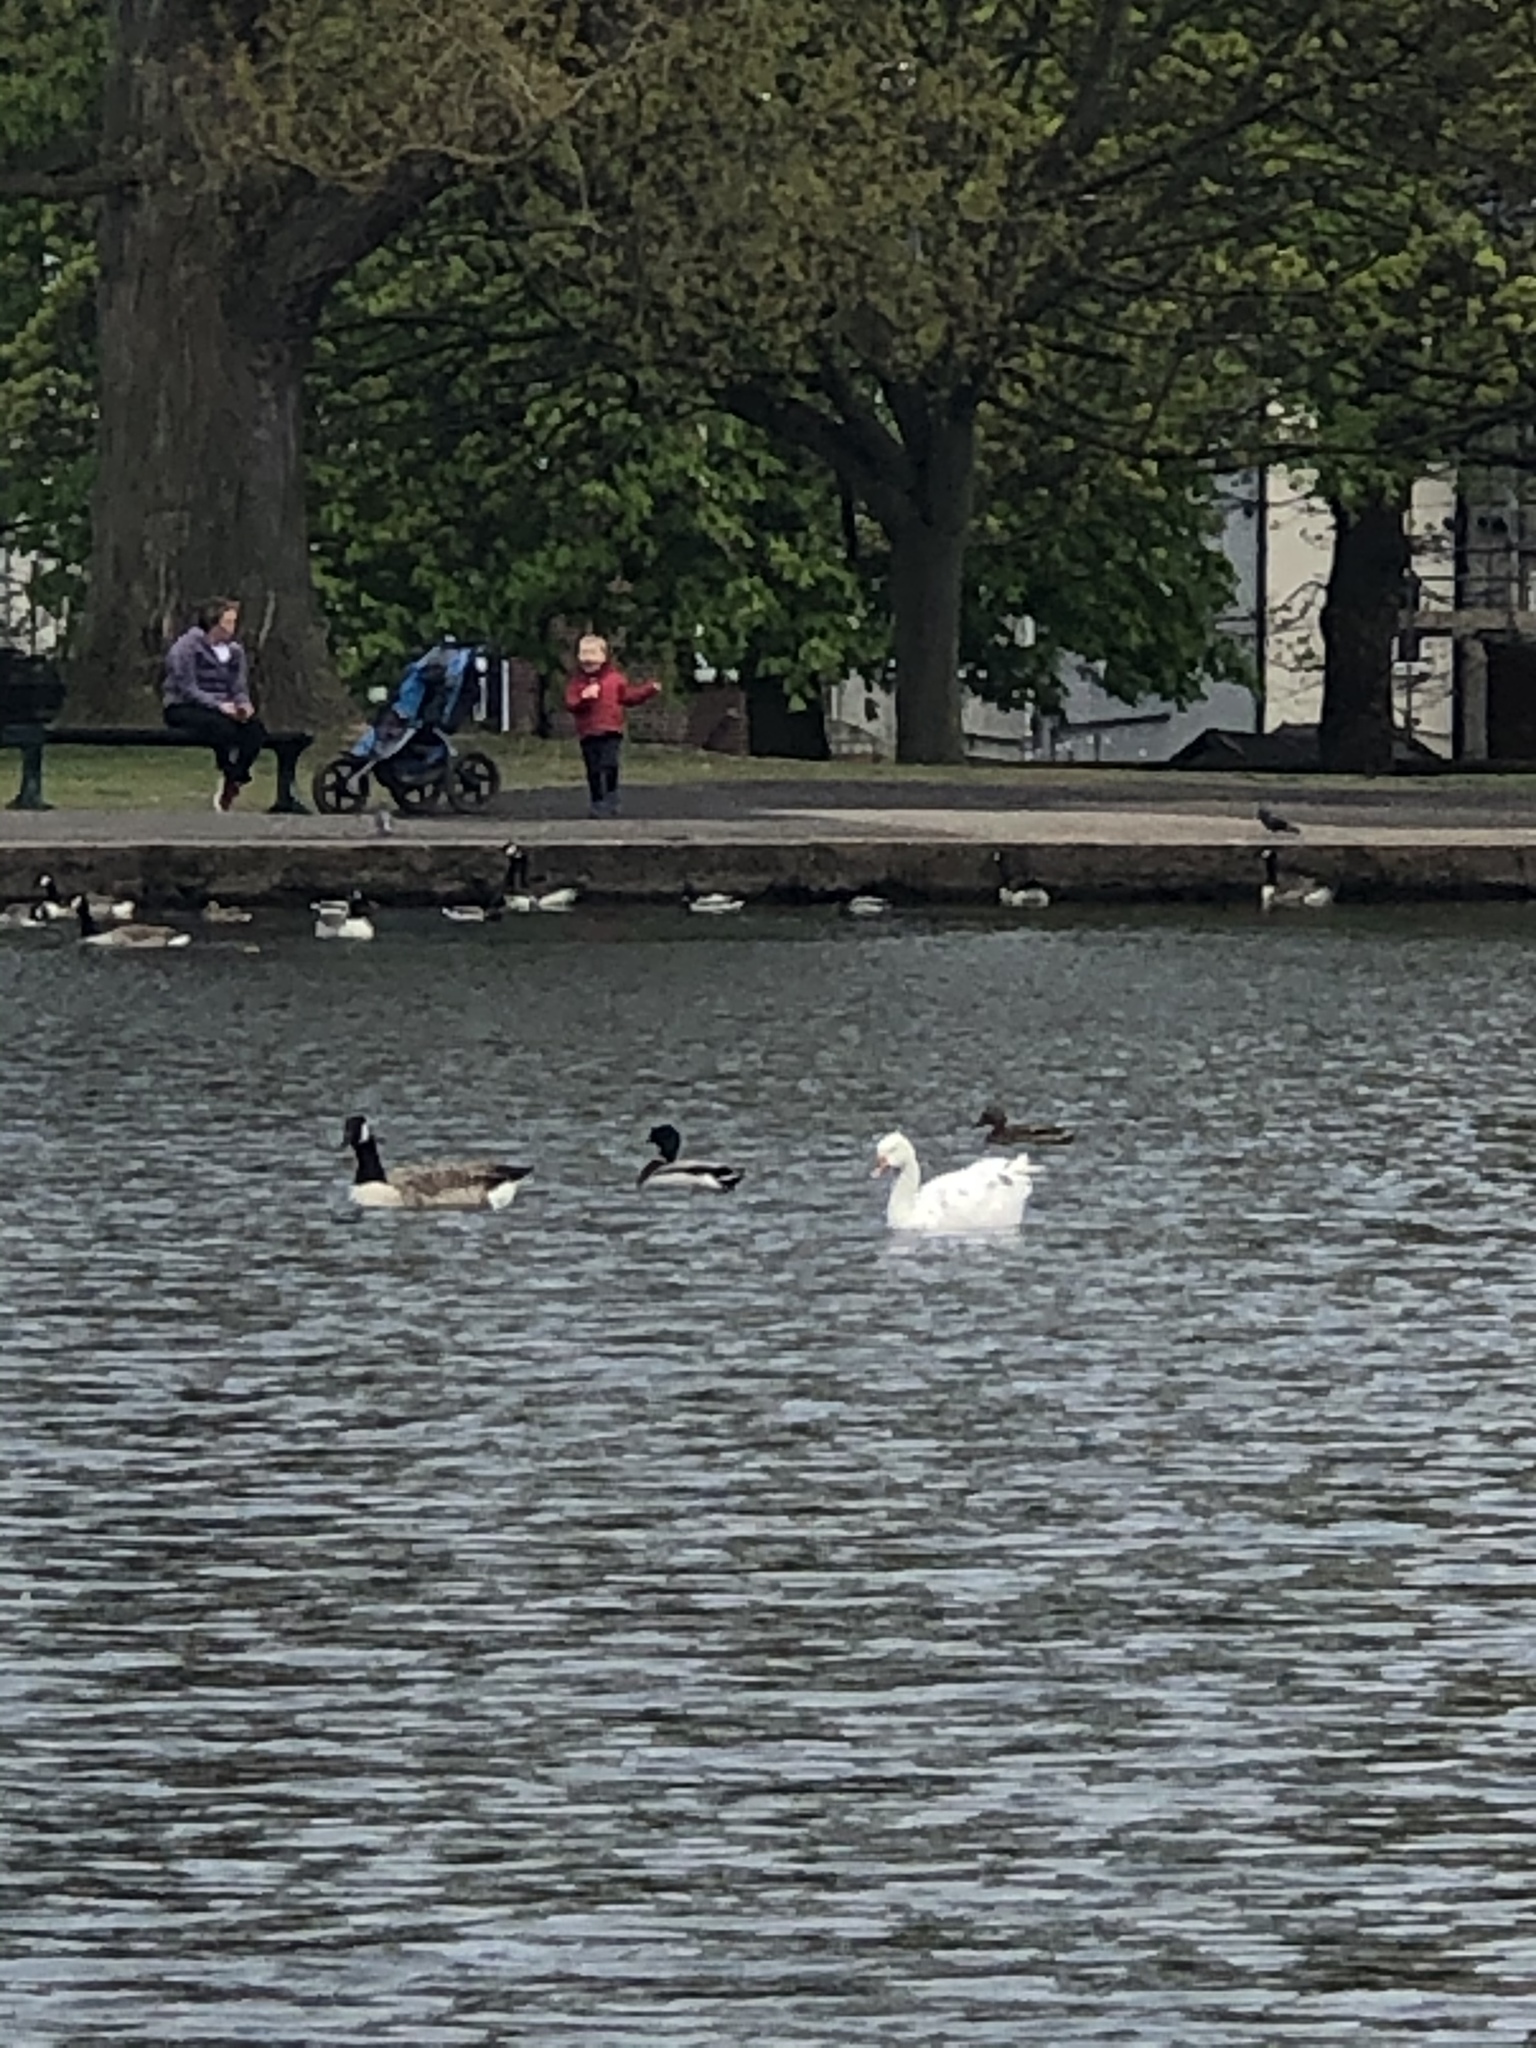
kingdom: Animalia
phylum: Chordata
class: Aves
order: Anseriformes
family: Anatidae
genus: Anser
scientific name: Anser anser
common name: Greylag goose
